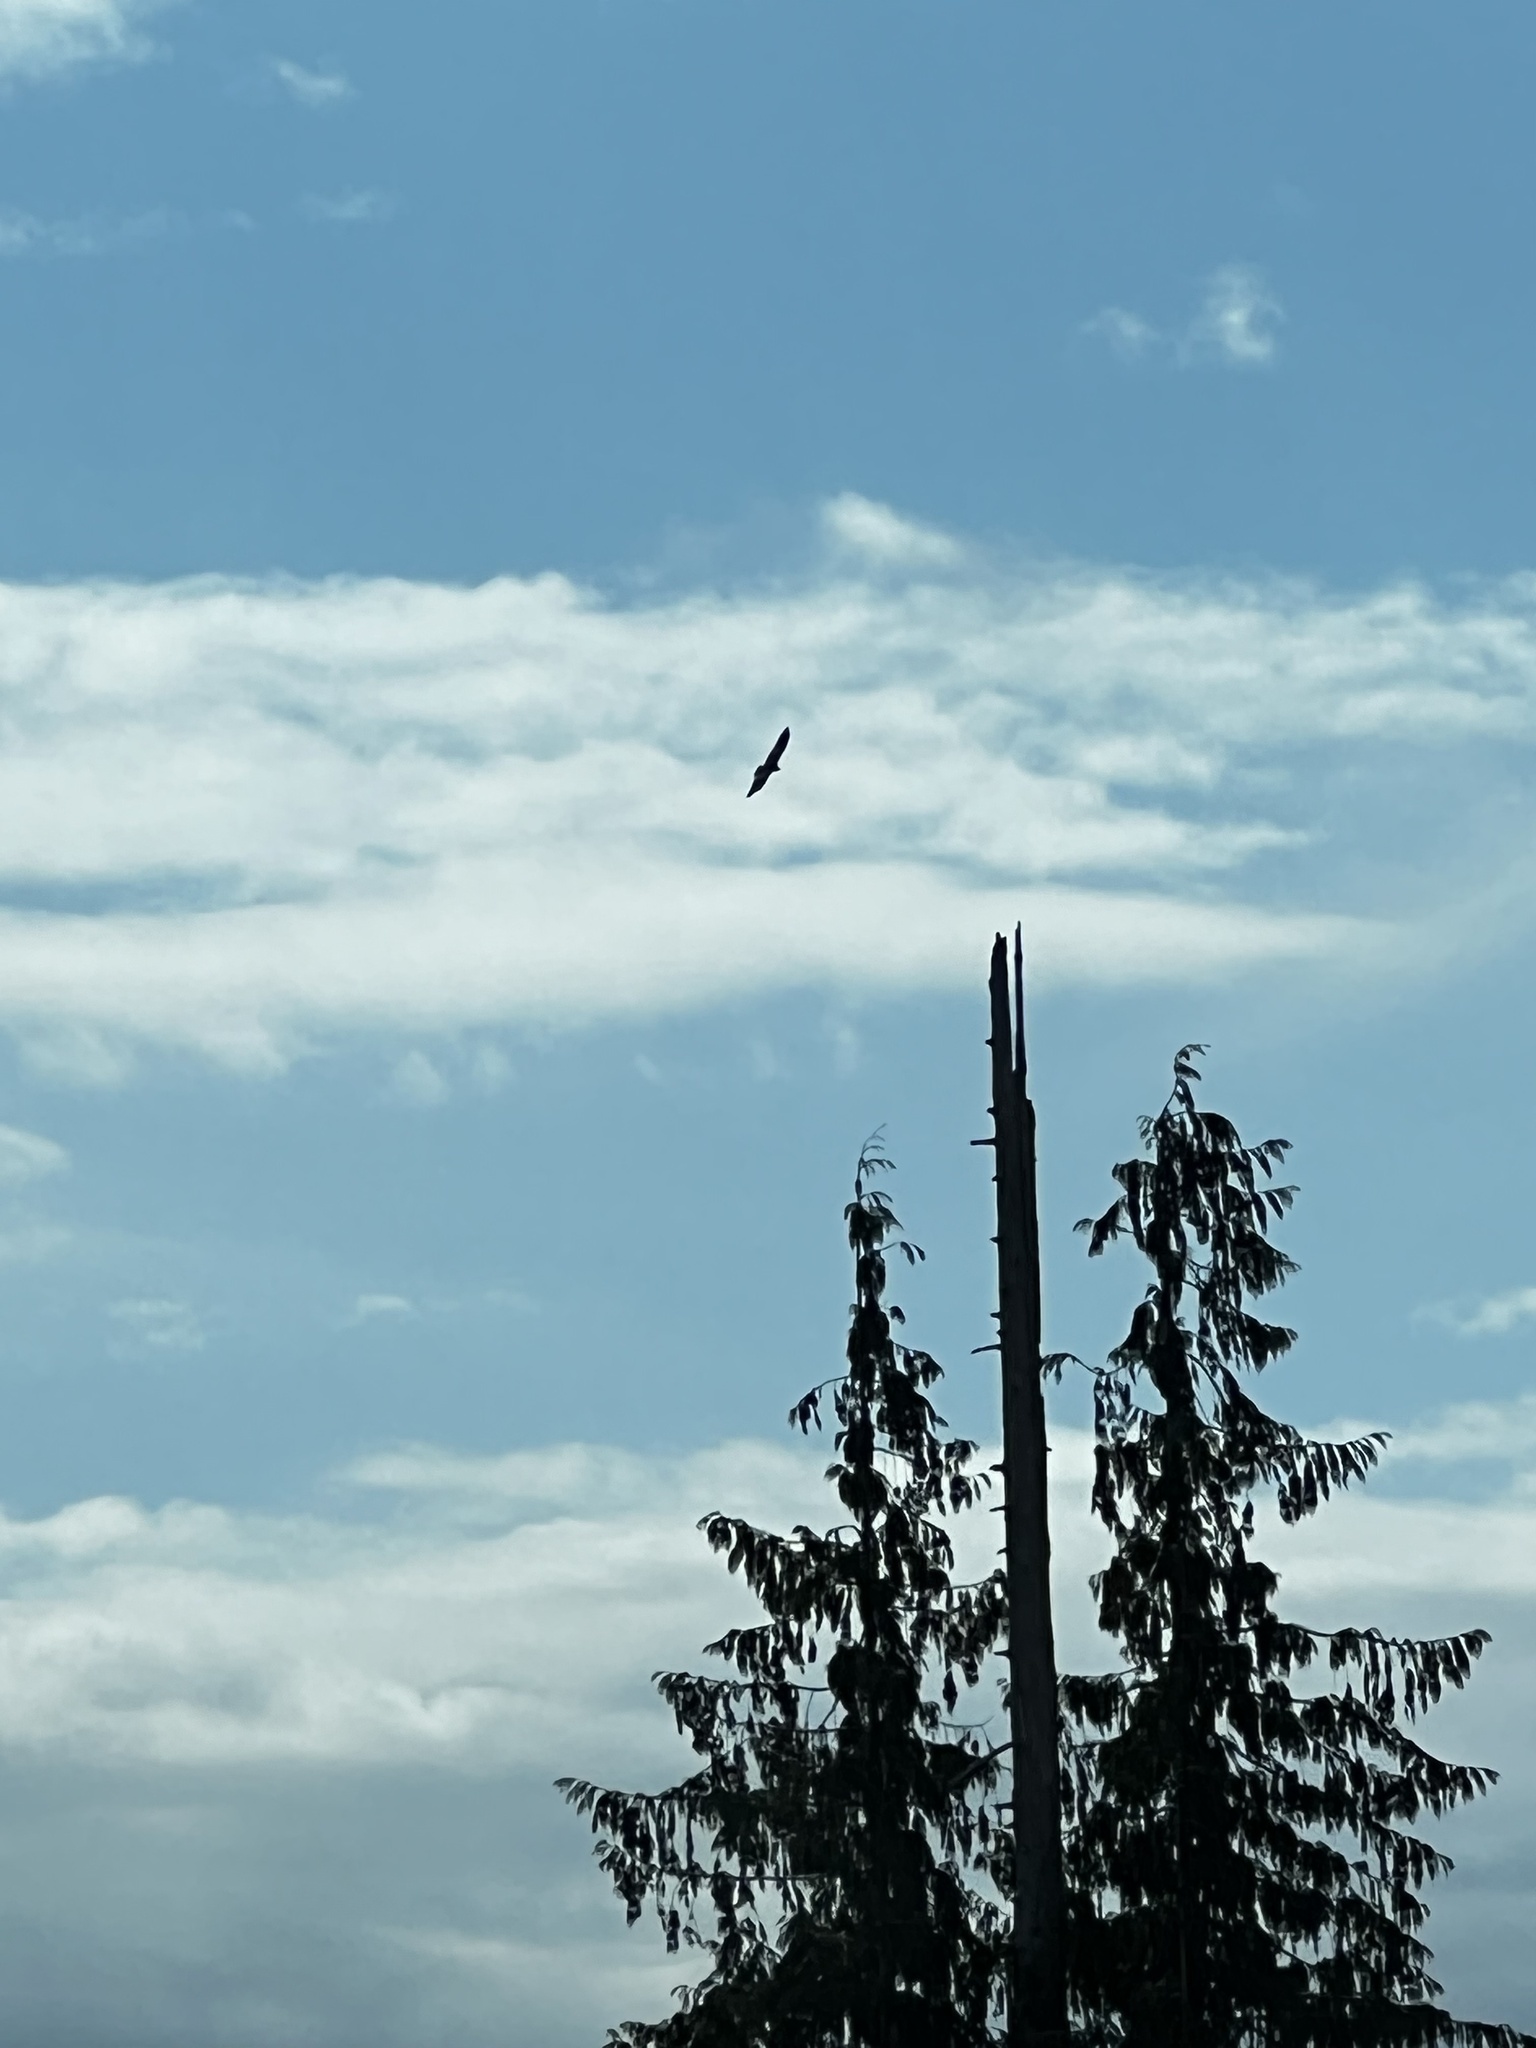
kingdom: Animalia
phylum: Chordata
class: Aves
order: Accipitriformes
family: Cathartidae
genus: Cathartes
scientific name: Cathartes aura
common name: Turkey vulture
